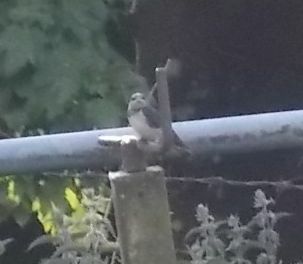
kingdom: Animalia
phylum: Chordata
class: Aves
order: Passeriformes
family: Hirundinidae
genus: Hirundo
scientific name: Hirundo rustica
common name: Barn swallow
